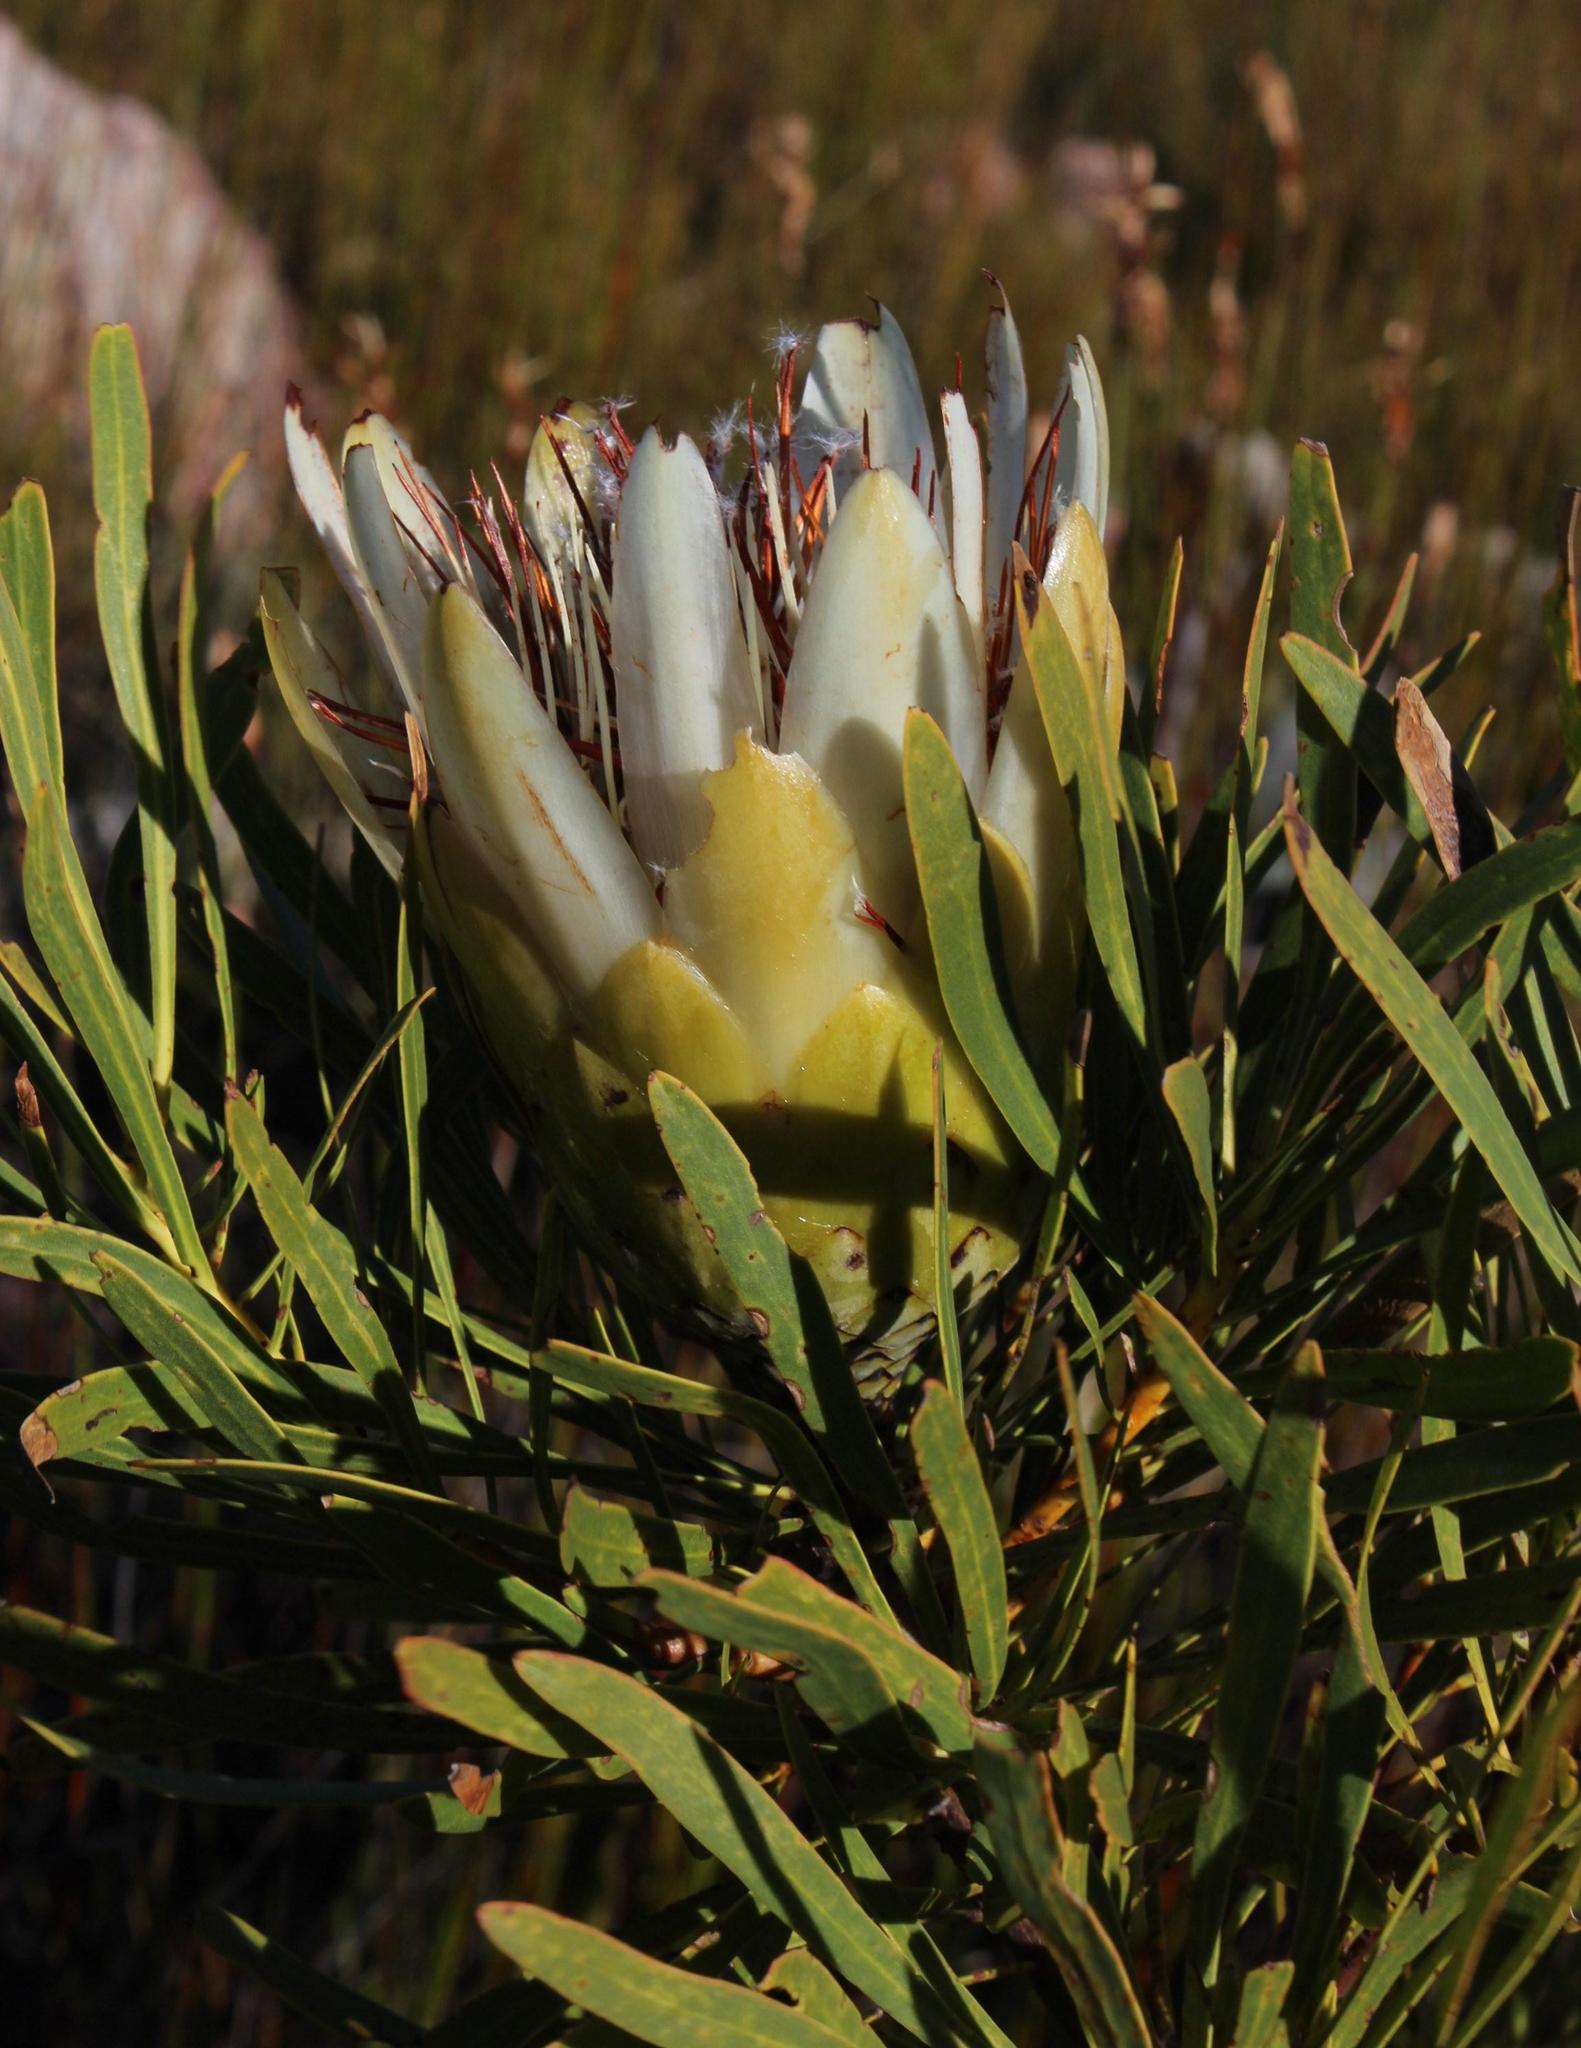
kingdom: Plantae
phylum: Tracheophyta
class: Magnoliopsida
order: Proteales
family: Proteaceae
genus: Protea
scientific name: Protea repens
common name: Sugarbush
